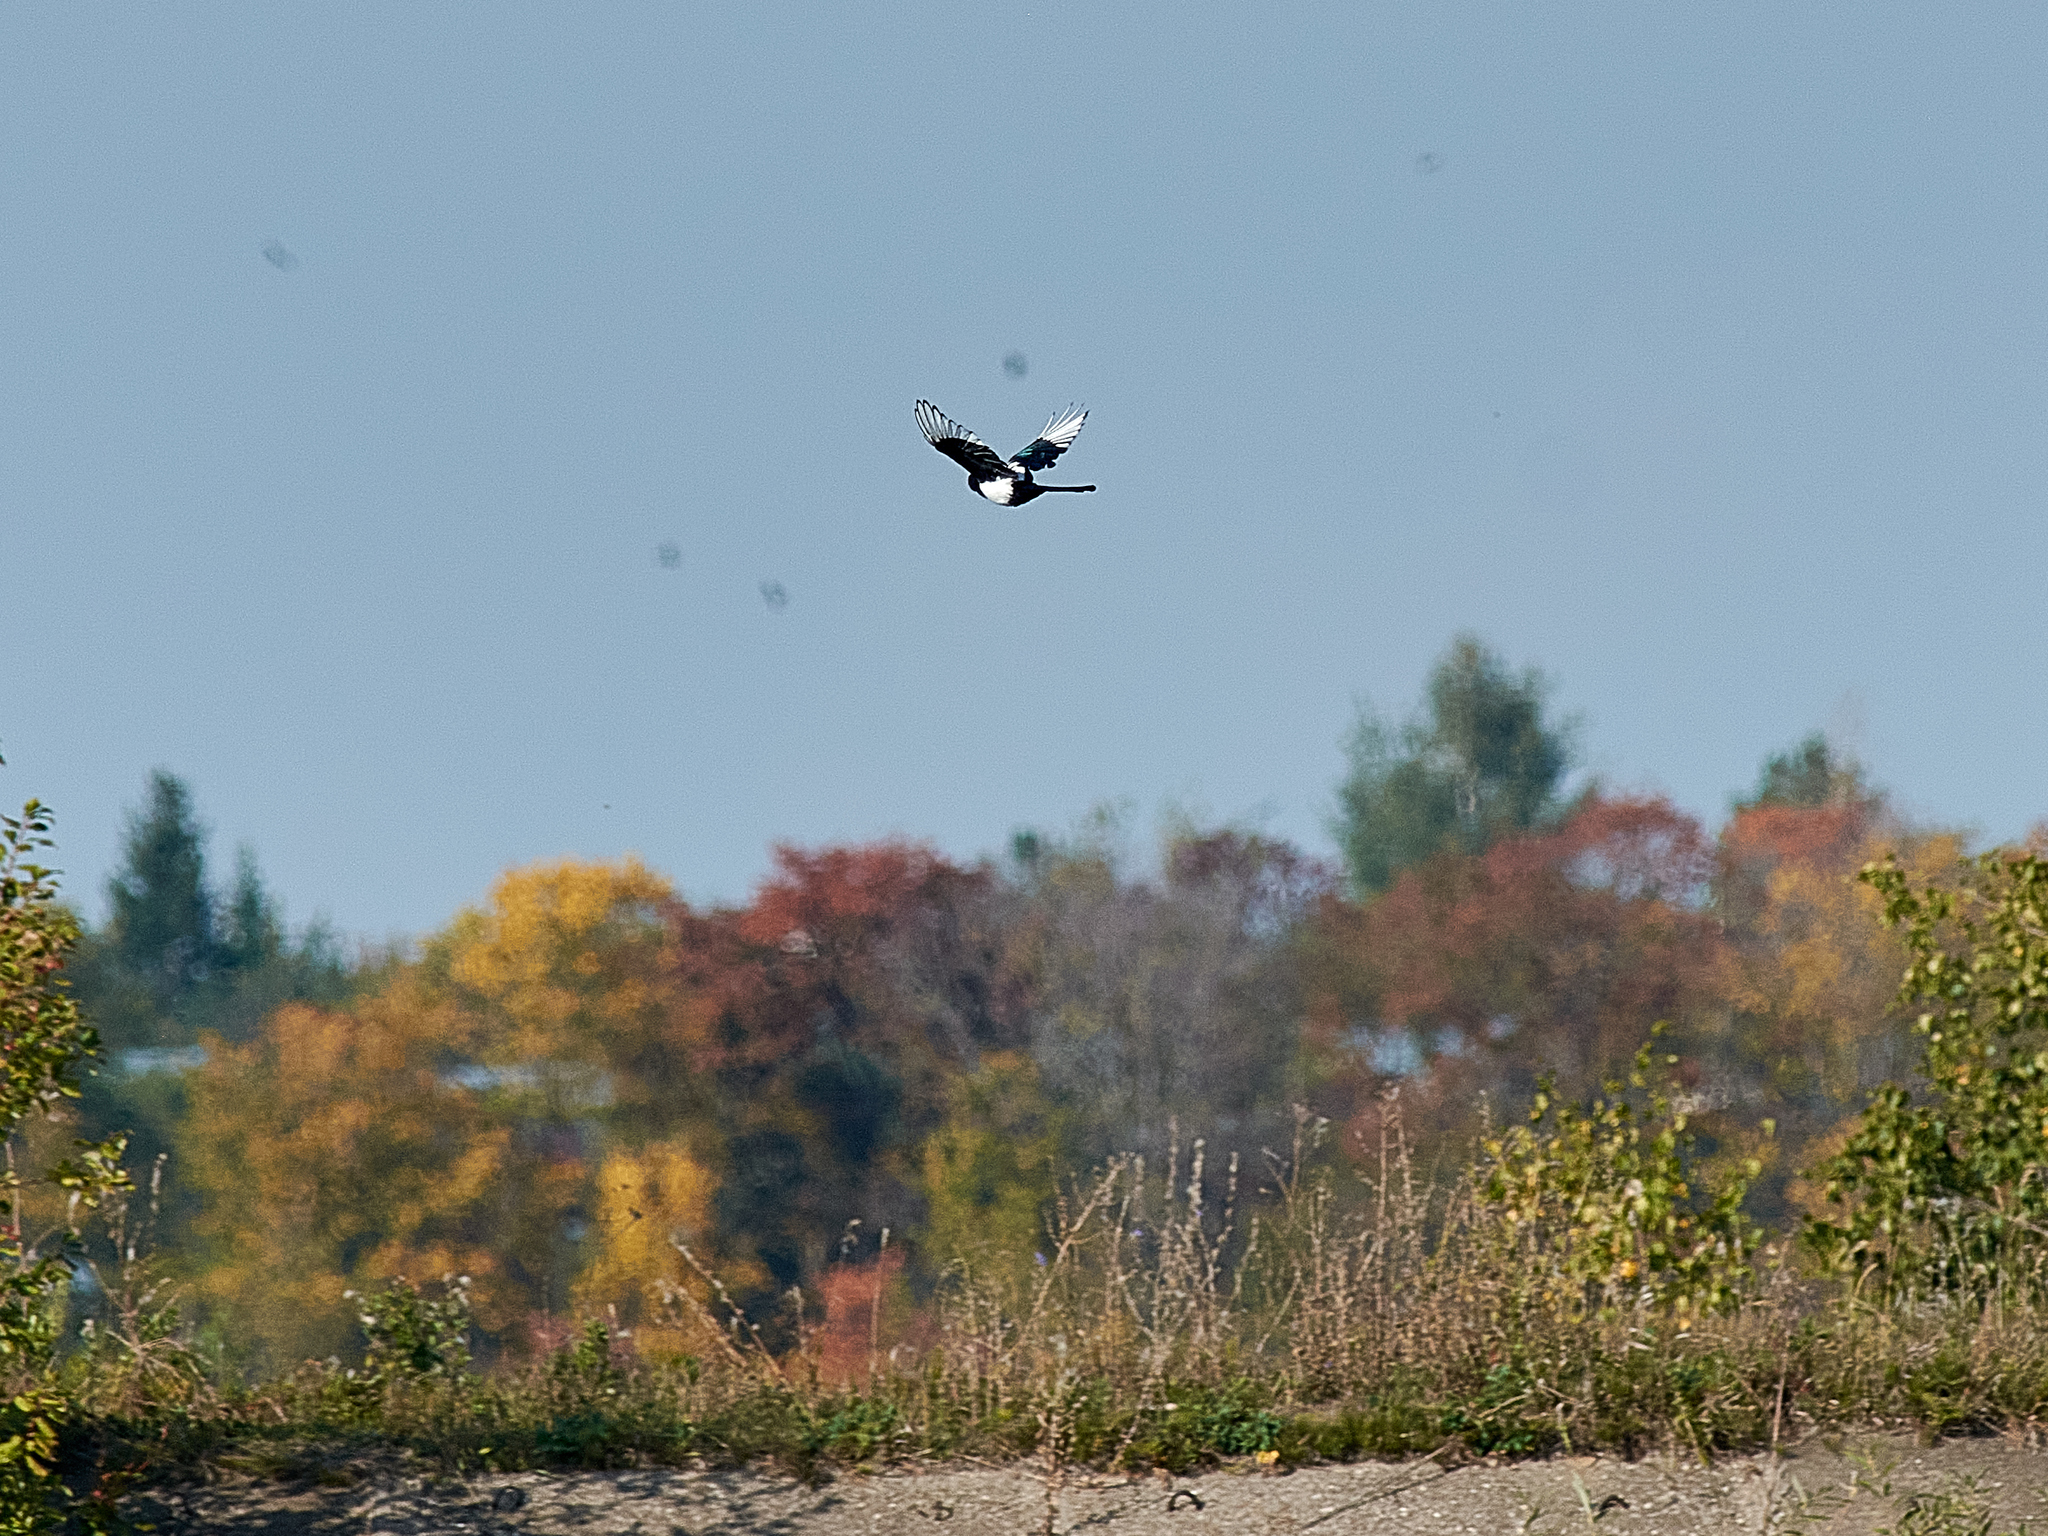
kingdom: Animalia
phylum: Chordata
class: Aves
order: Passeriformes
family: Corvidae
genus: Pica
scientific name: Pica pica
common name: Eurasian magpie
